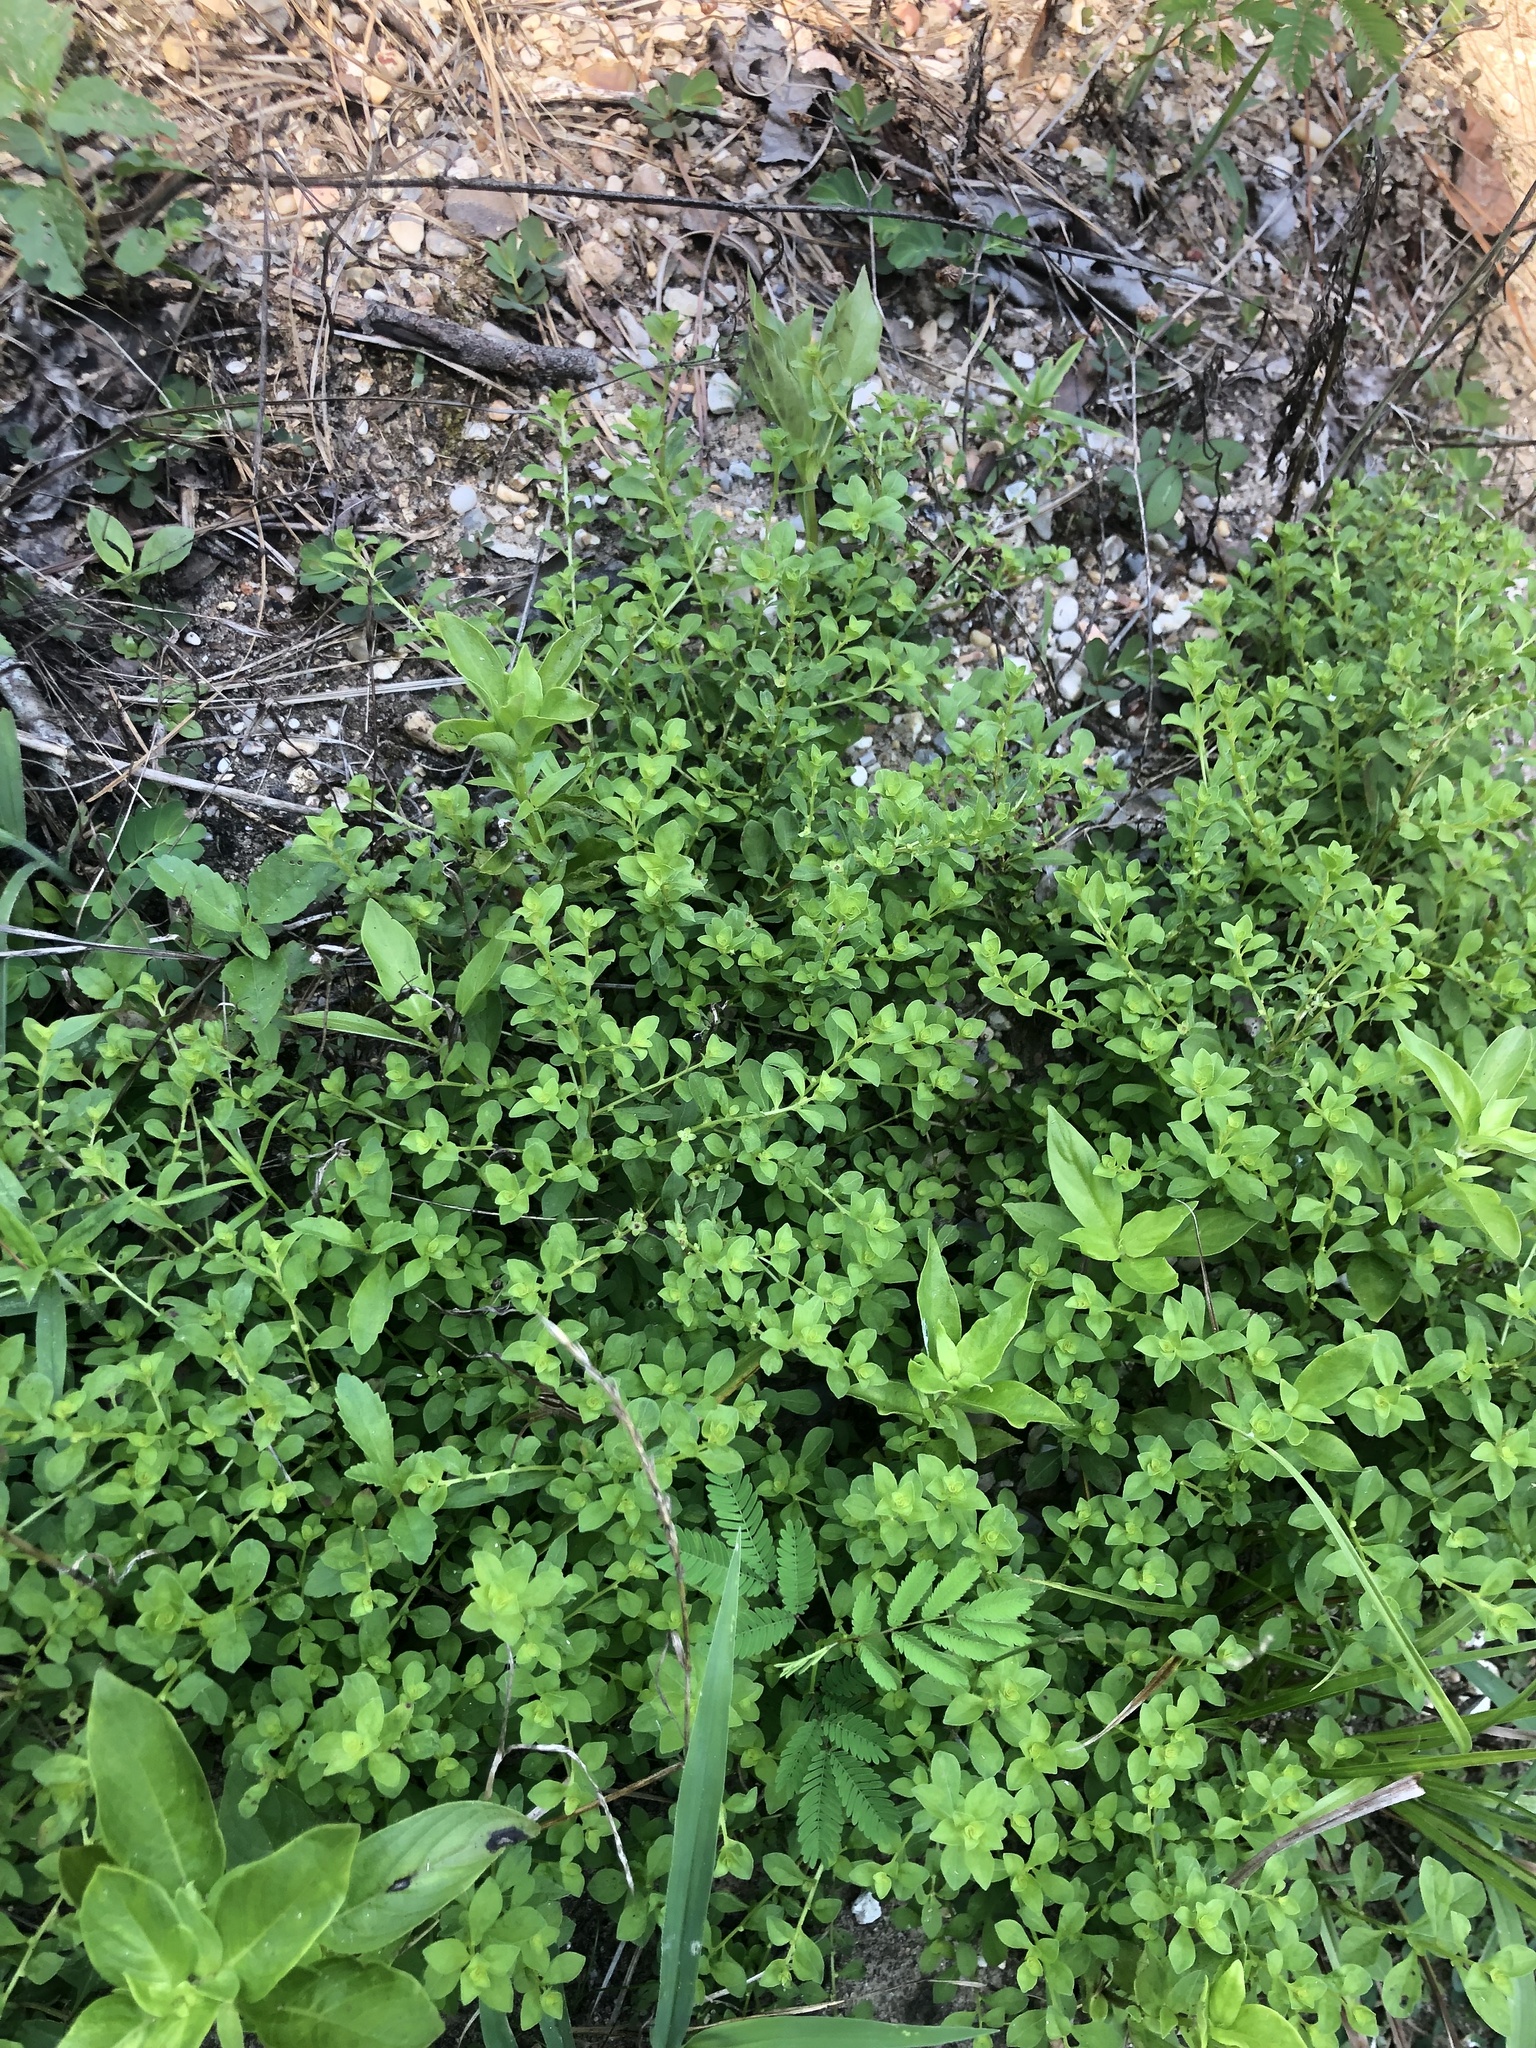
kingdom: Plantae
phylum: Tracheophyta
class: Magnoliopsida
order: Myrtales
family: Onagraceae
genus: Ludwigia
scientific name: Ludwigia microcarpa
